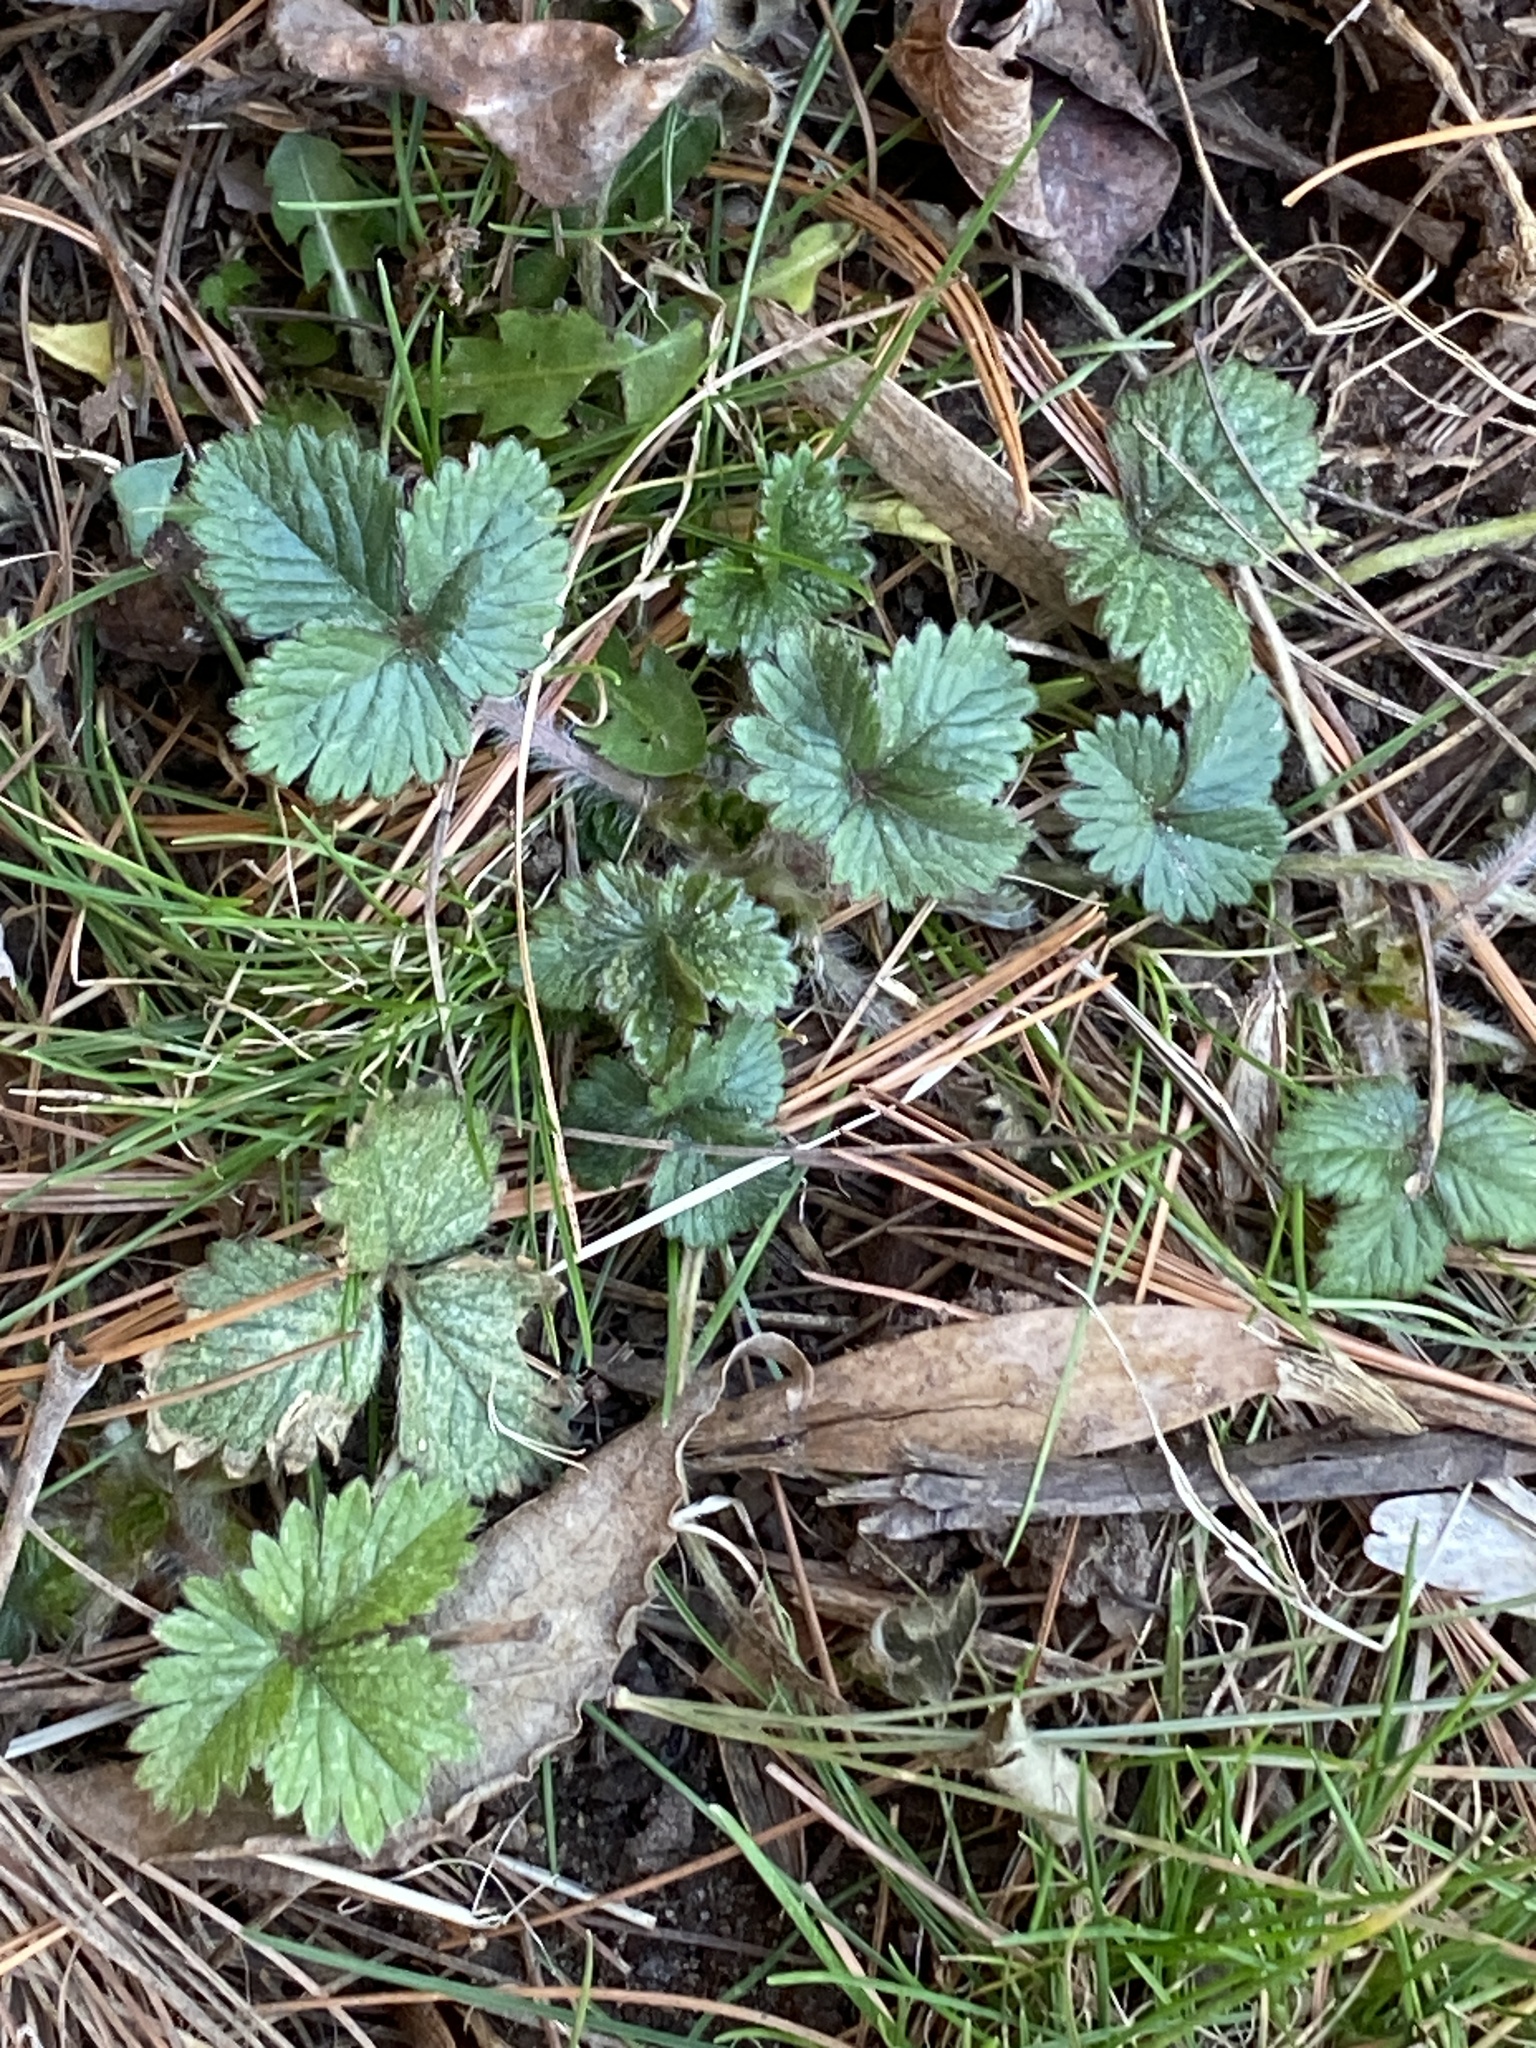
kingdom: Plantae
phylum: Tracheophyta
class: Magnoliopsida
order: Rosales
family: Rosaceae
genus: Potentilla
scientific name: Potentilla indica
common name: Yellow-flowered strawberry
